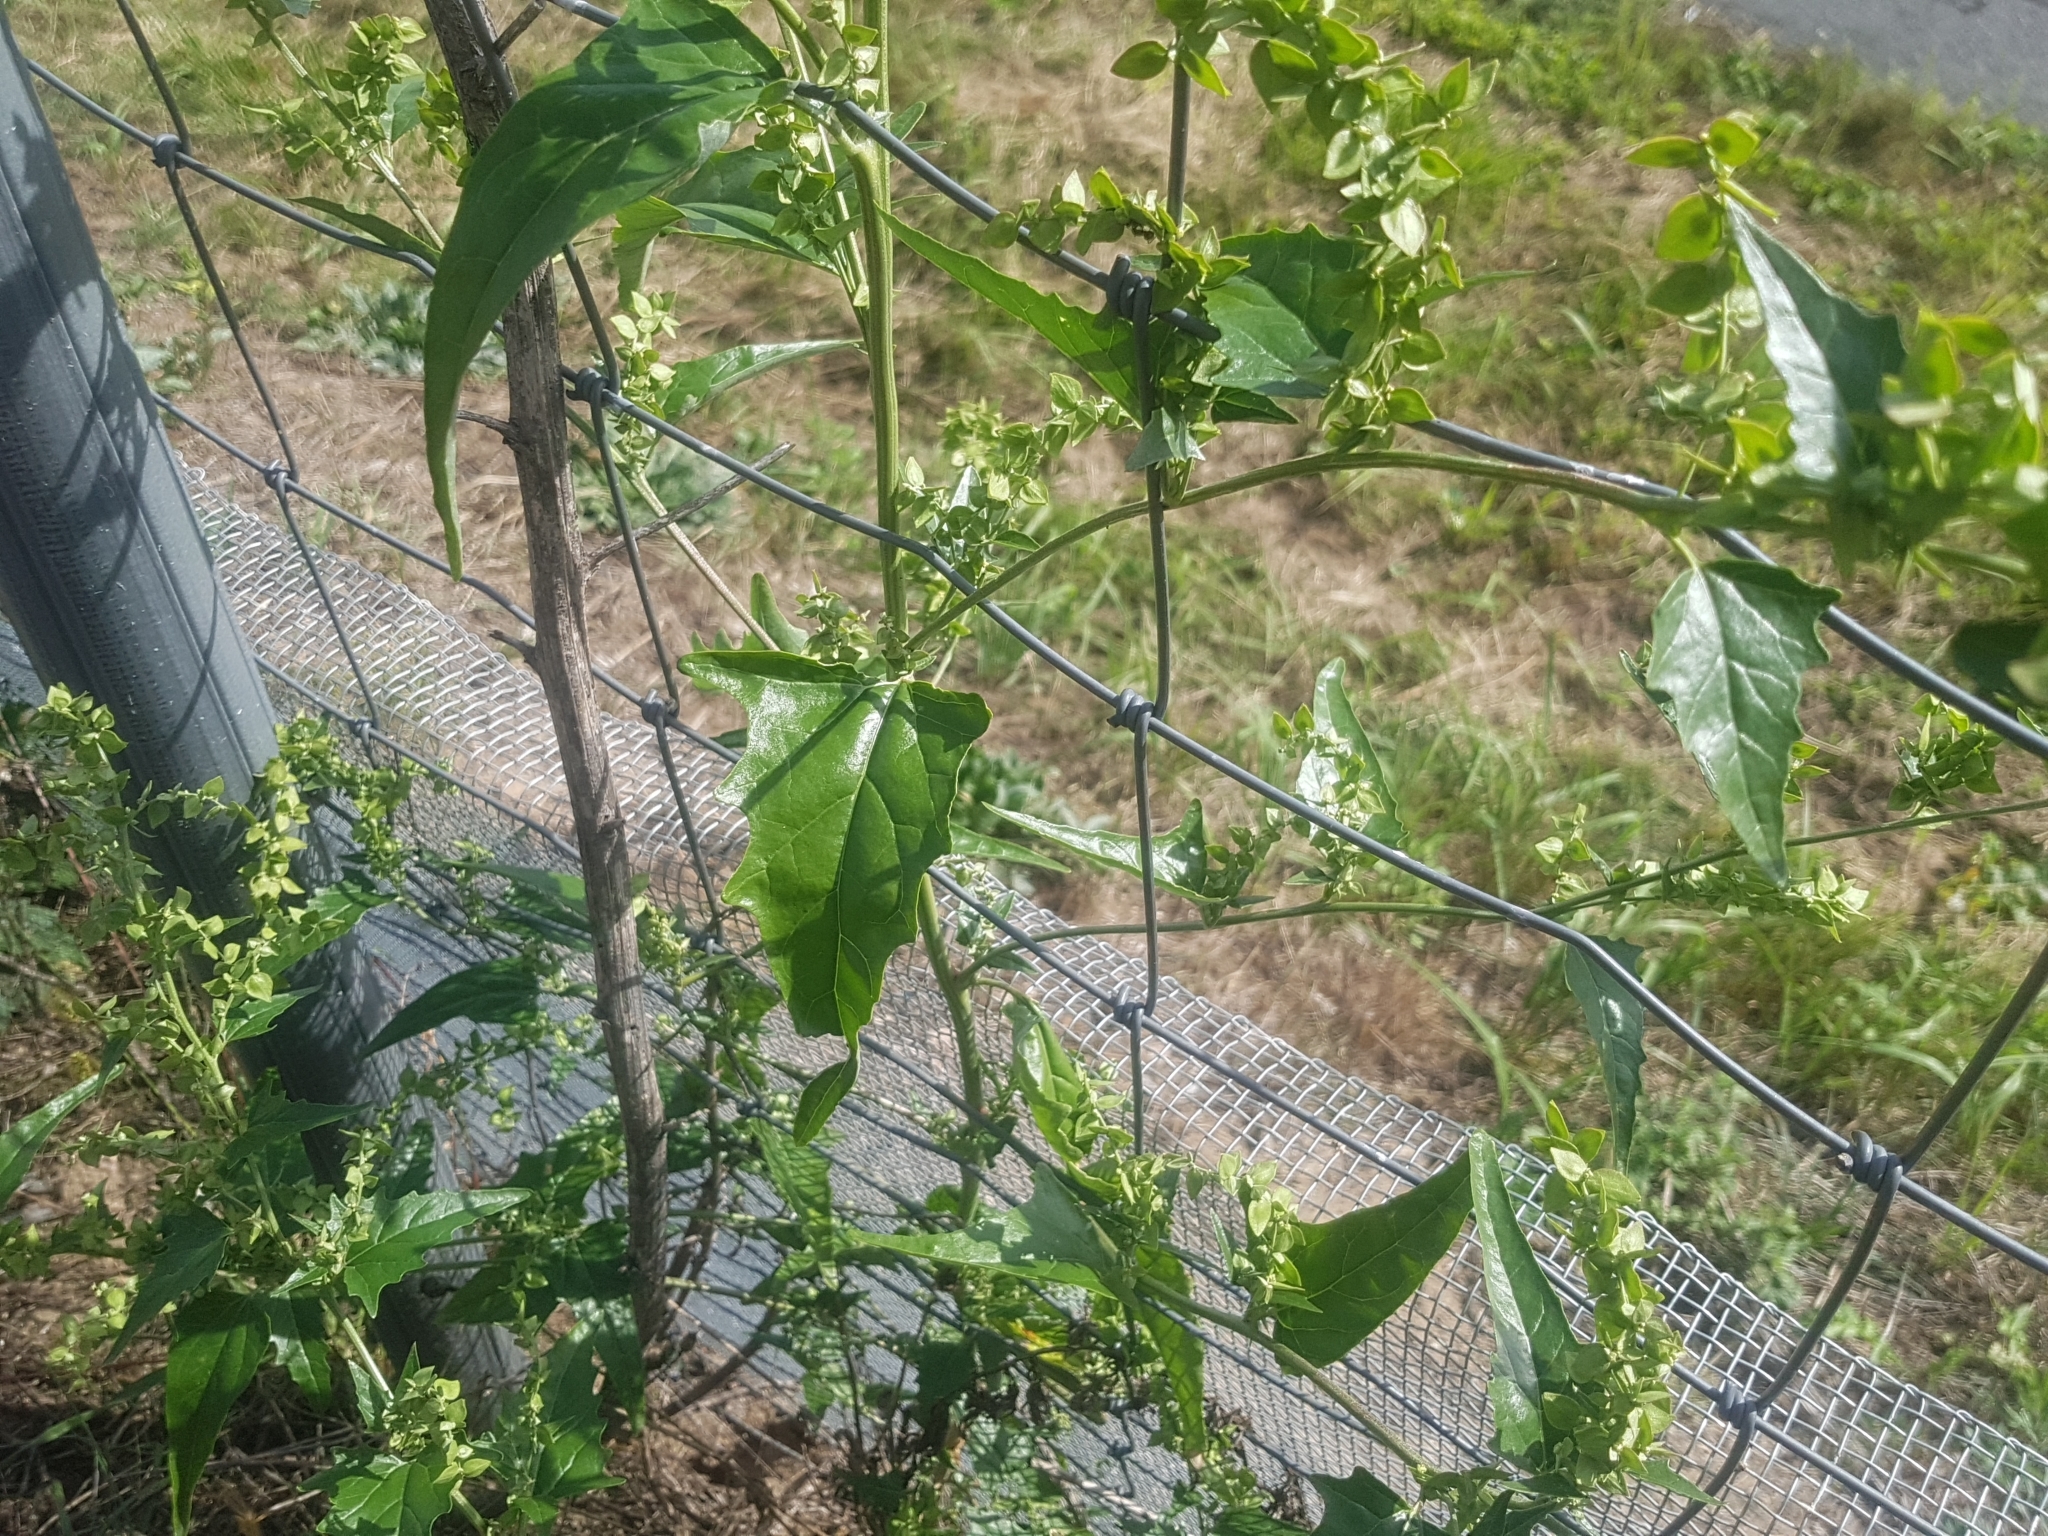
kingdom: Plantae
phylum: Tracheophyta
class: Magnoliopsida
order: Caryophyllales
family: Amaranthaceae
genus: Atriplex
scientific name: Atriplex sagittata
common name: Purple orache
